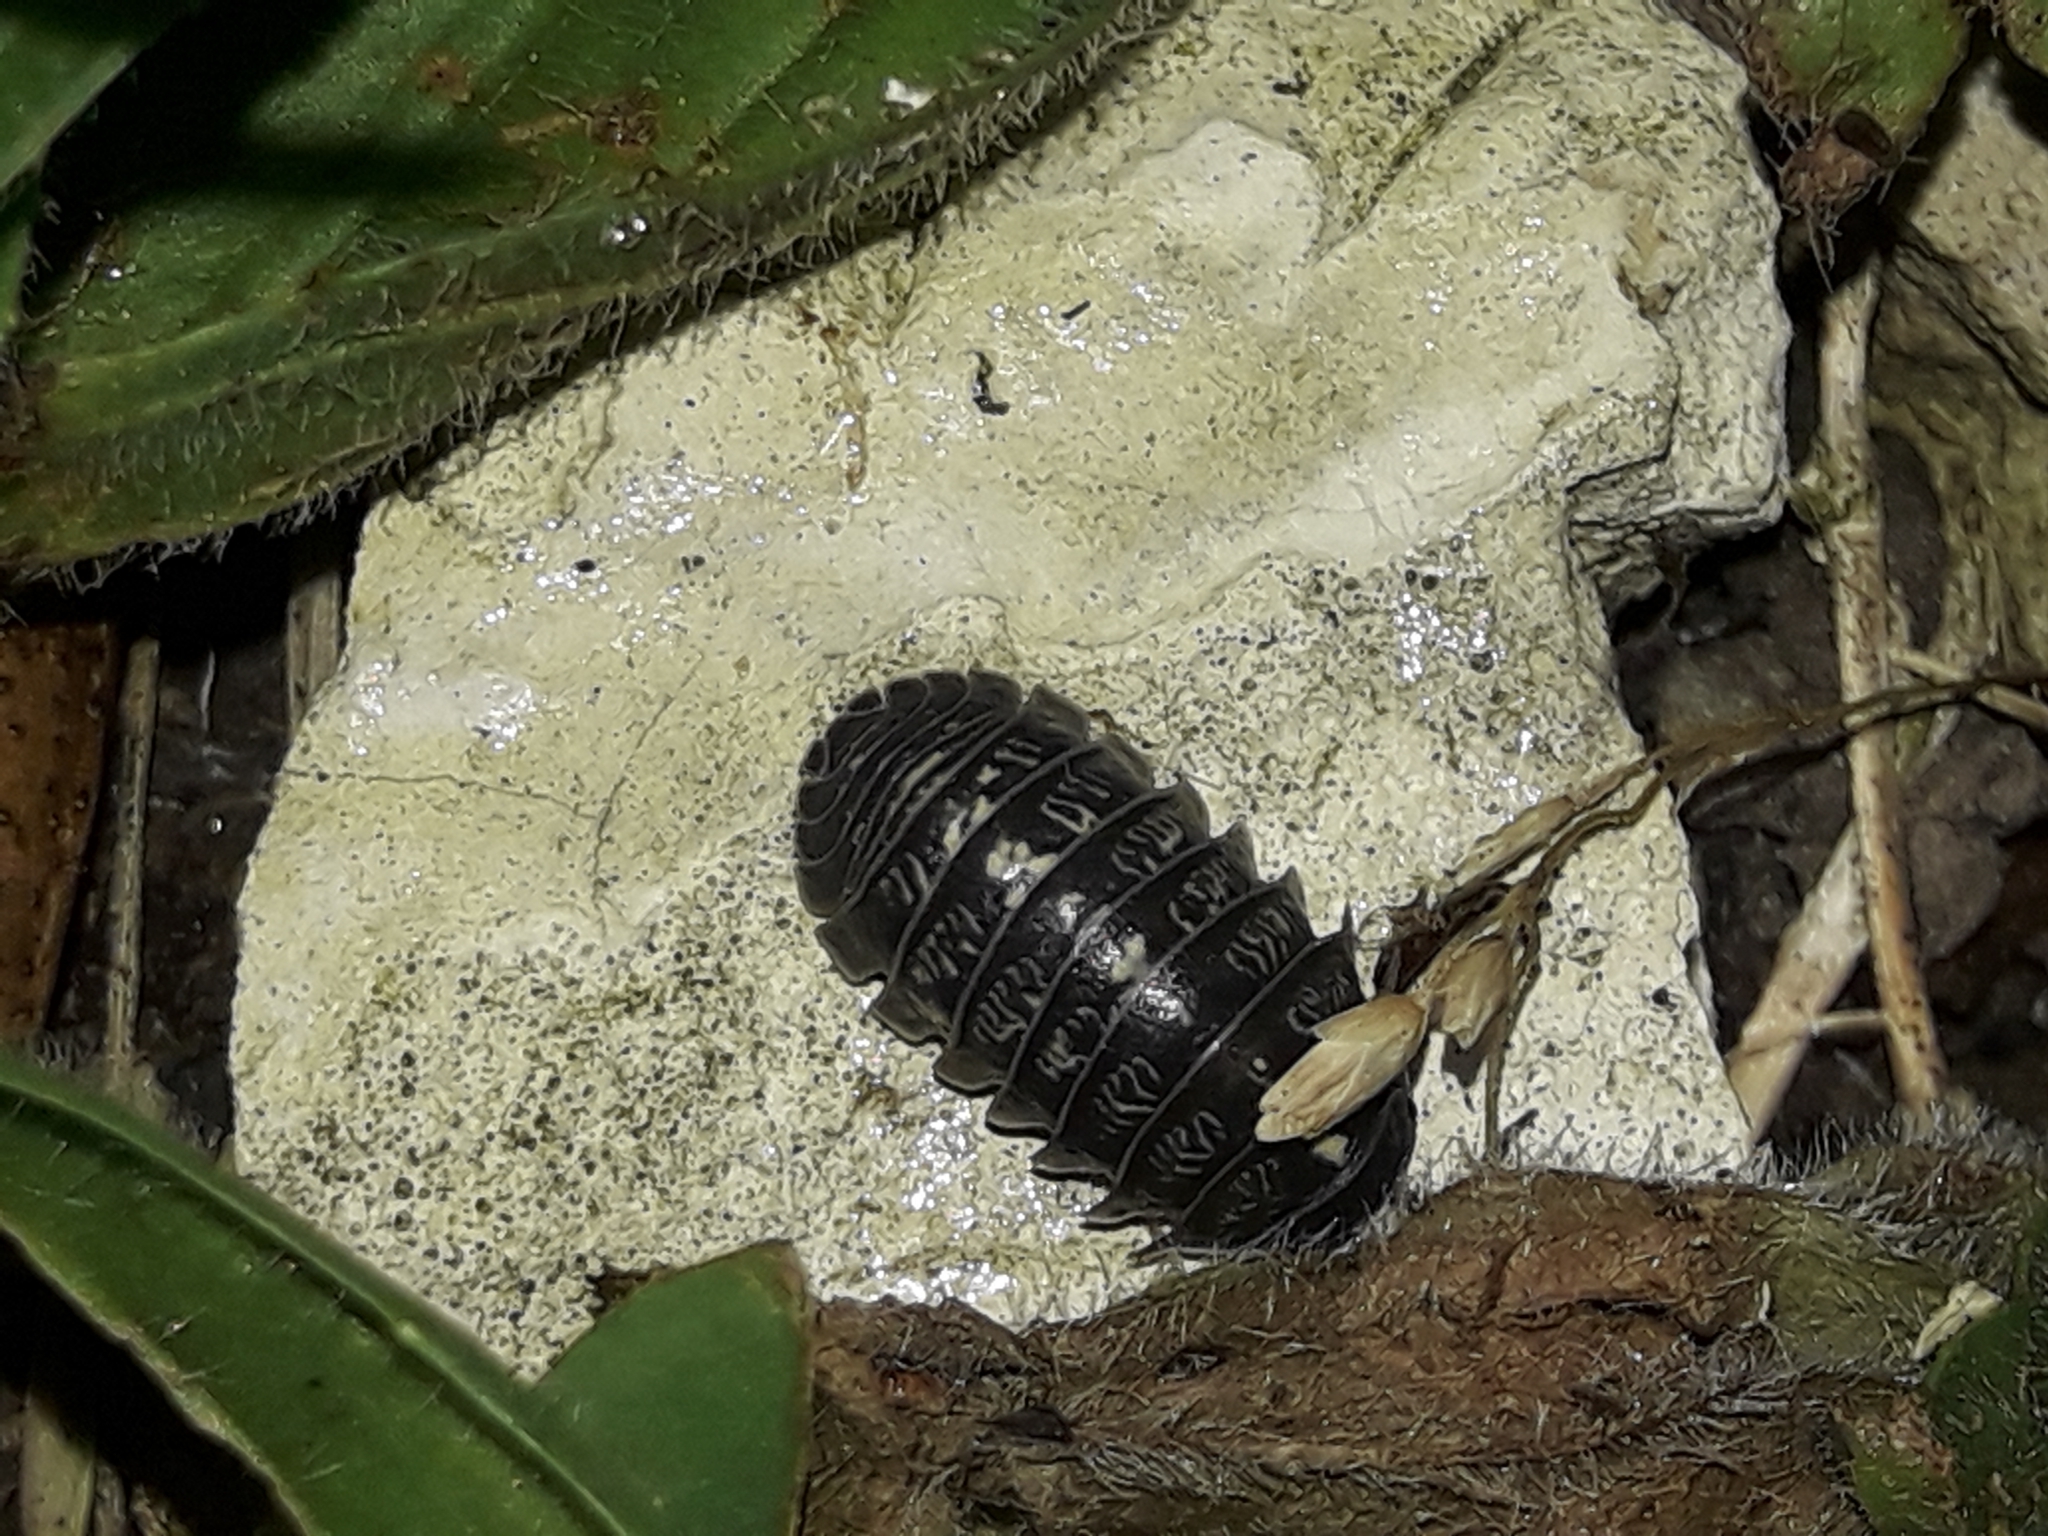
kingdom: Animalia
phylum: Arthropoda
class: Malacostraca
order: Isopoda
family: Armadillidiidae
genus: Armadillidium
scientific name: Armadillidium vulgare
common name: Common pill woodlouse
